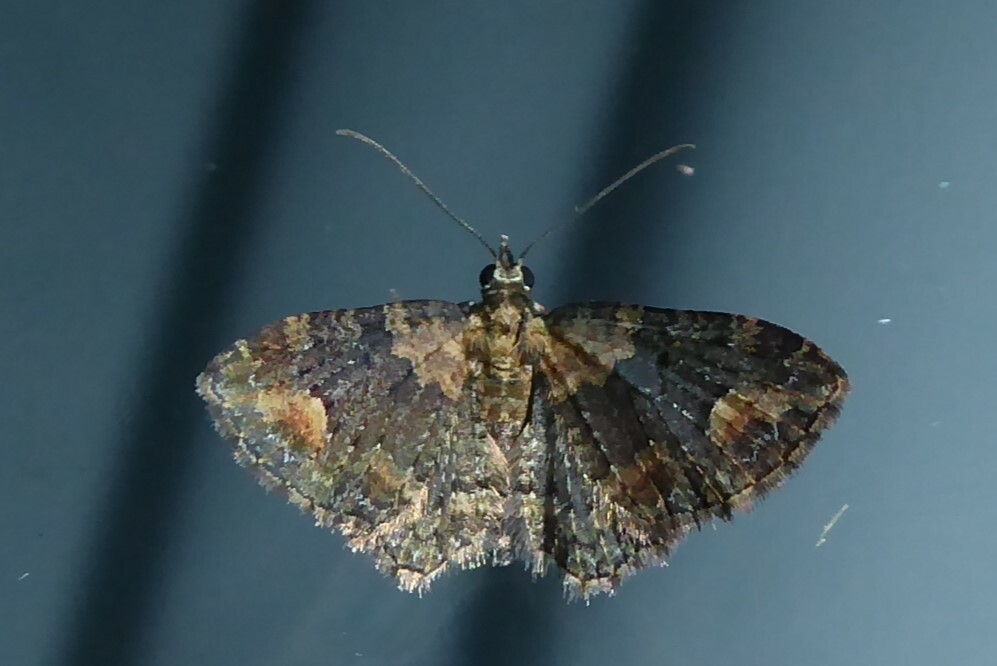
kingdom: Animalia
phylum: Arthropoda
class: Insecta
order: Lepidoptera
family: Geometridae
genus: Pasiphilodes
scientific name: Pasiphilodes testulata
